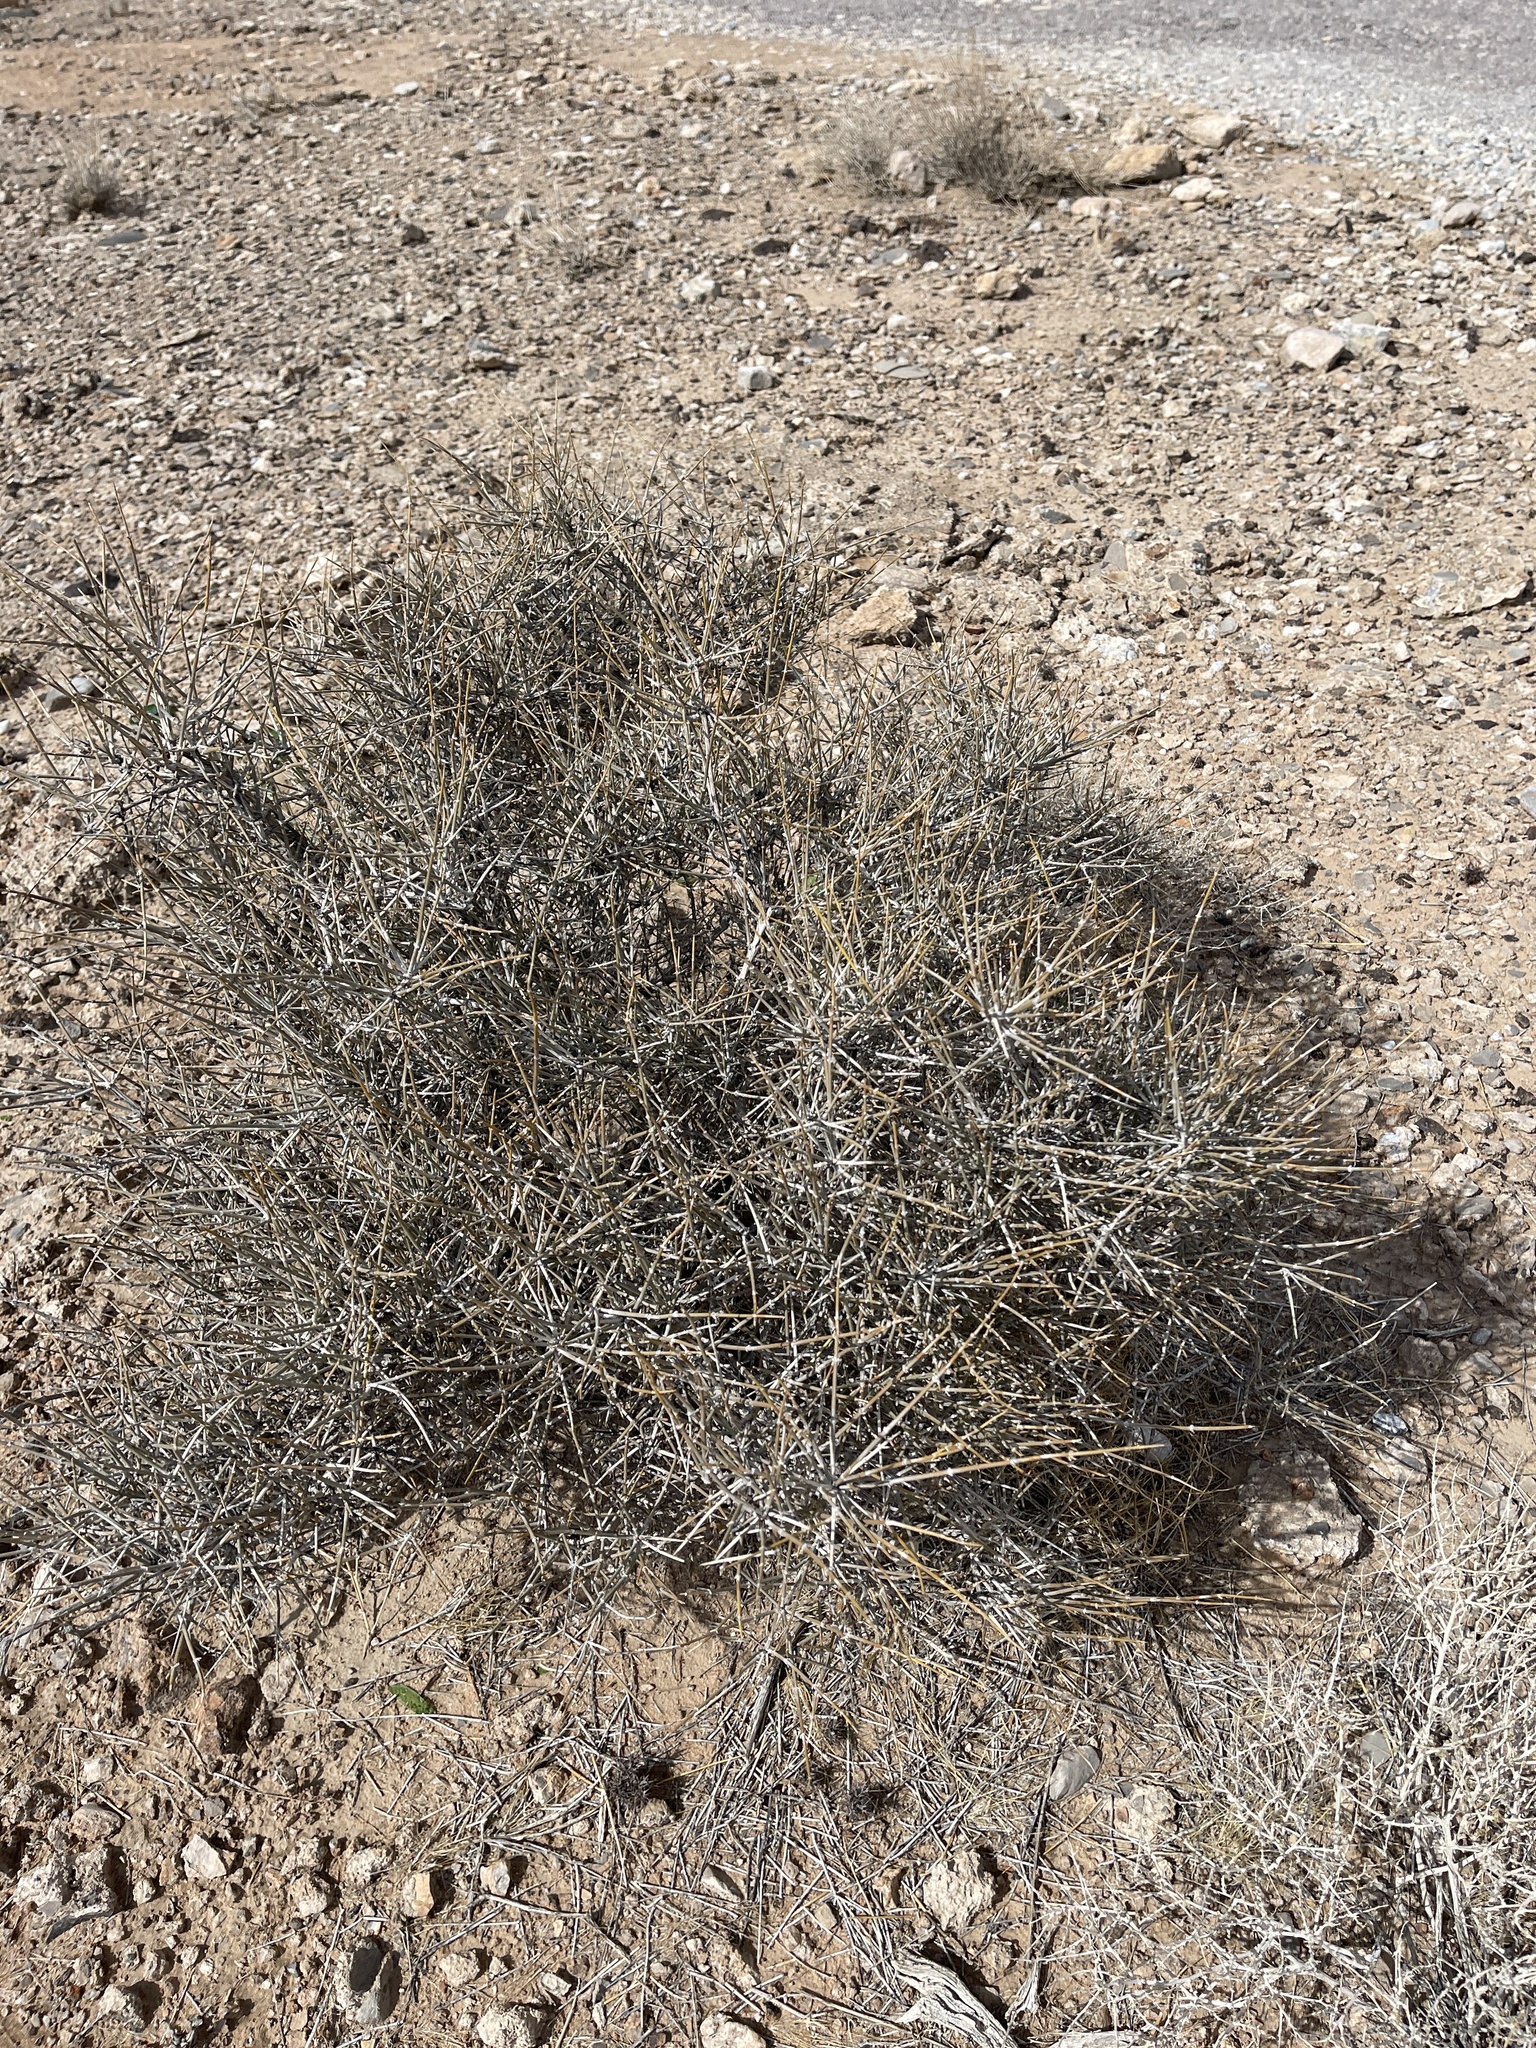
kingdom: Plantae
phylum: Tracheophyta
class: Gnetopsida
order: Ephedrales
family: Ephedraceae
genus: Ephedra
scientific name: Ephedra nevadensis
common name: Gray ephedra
